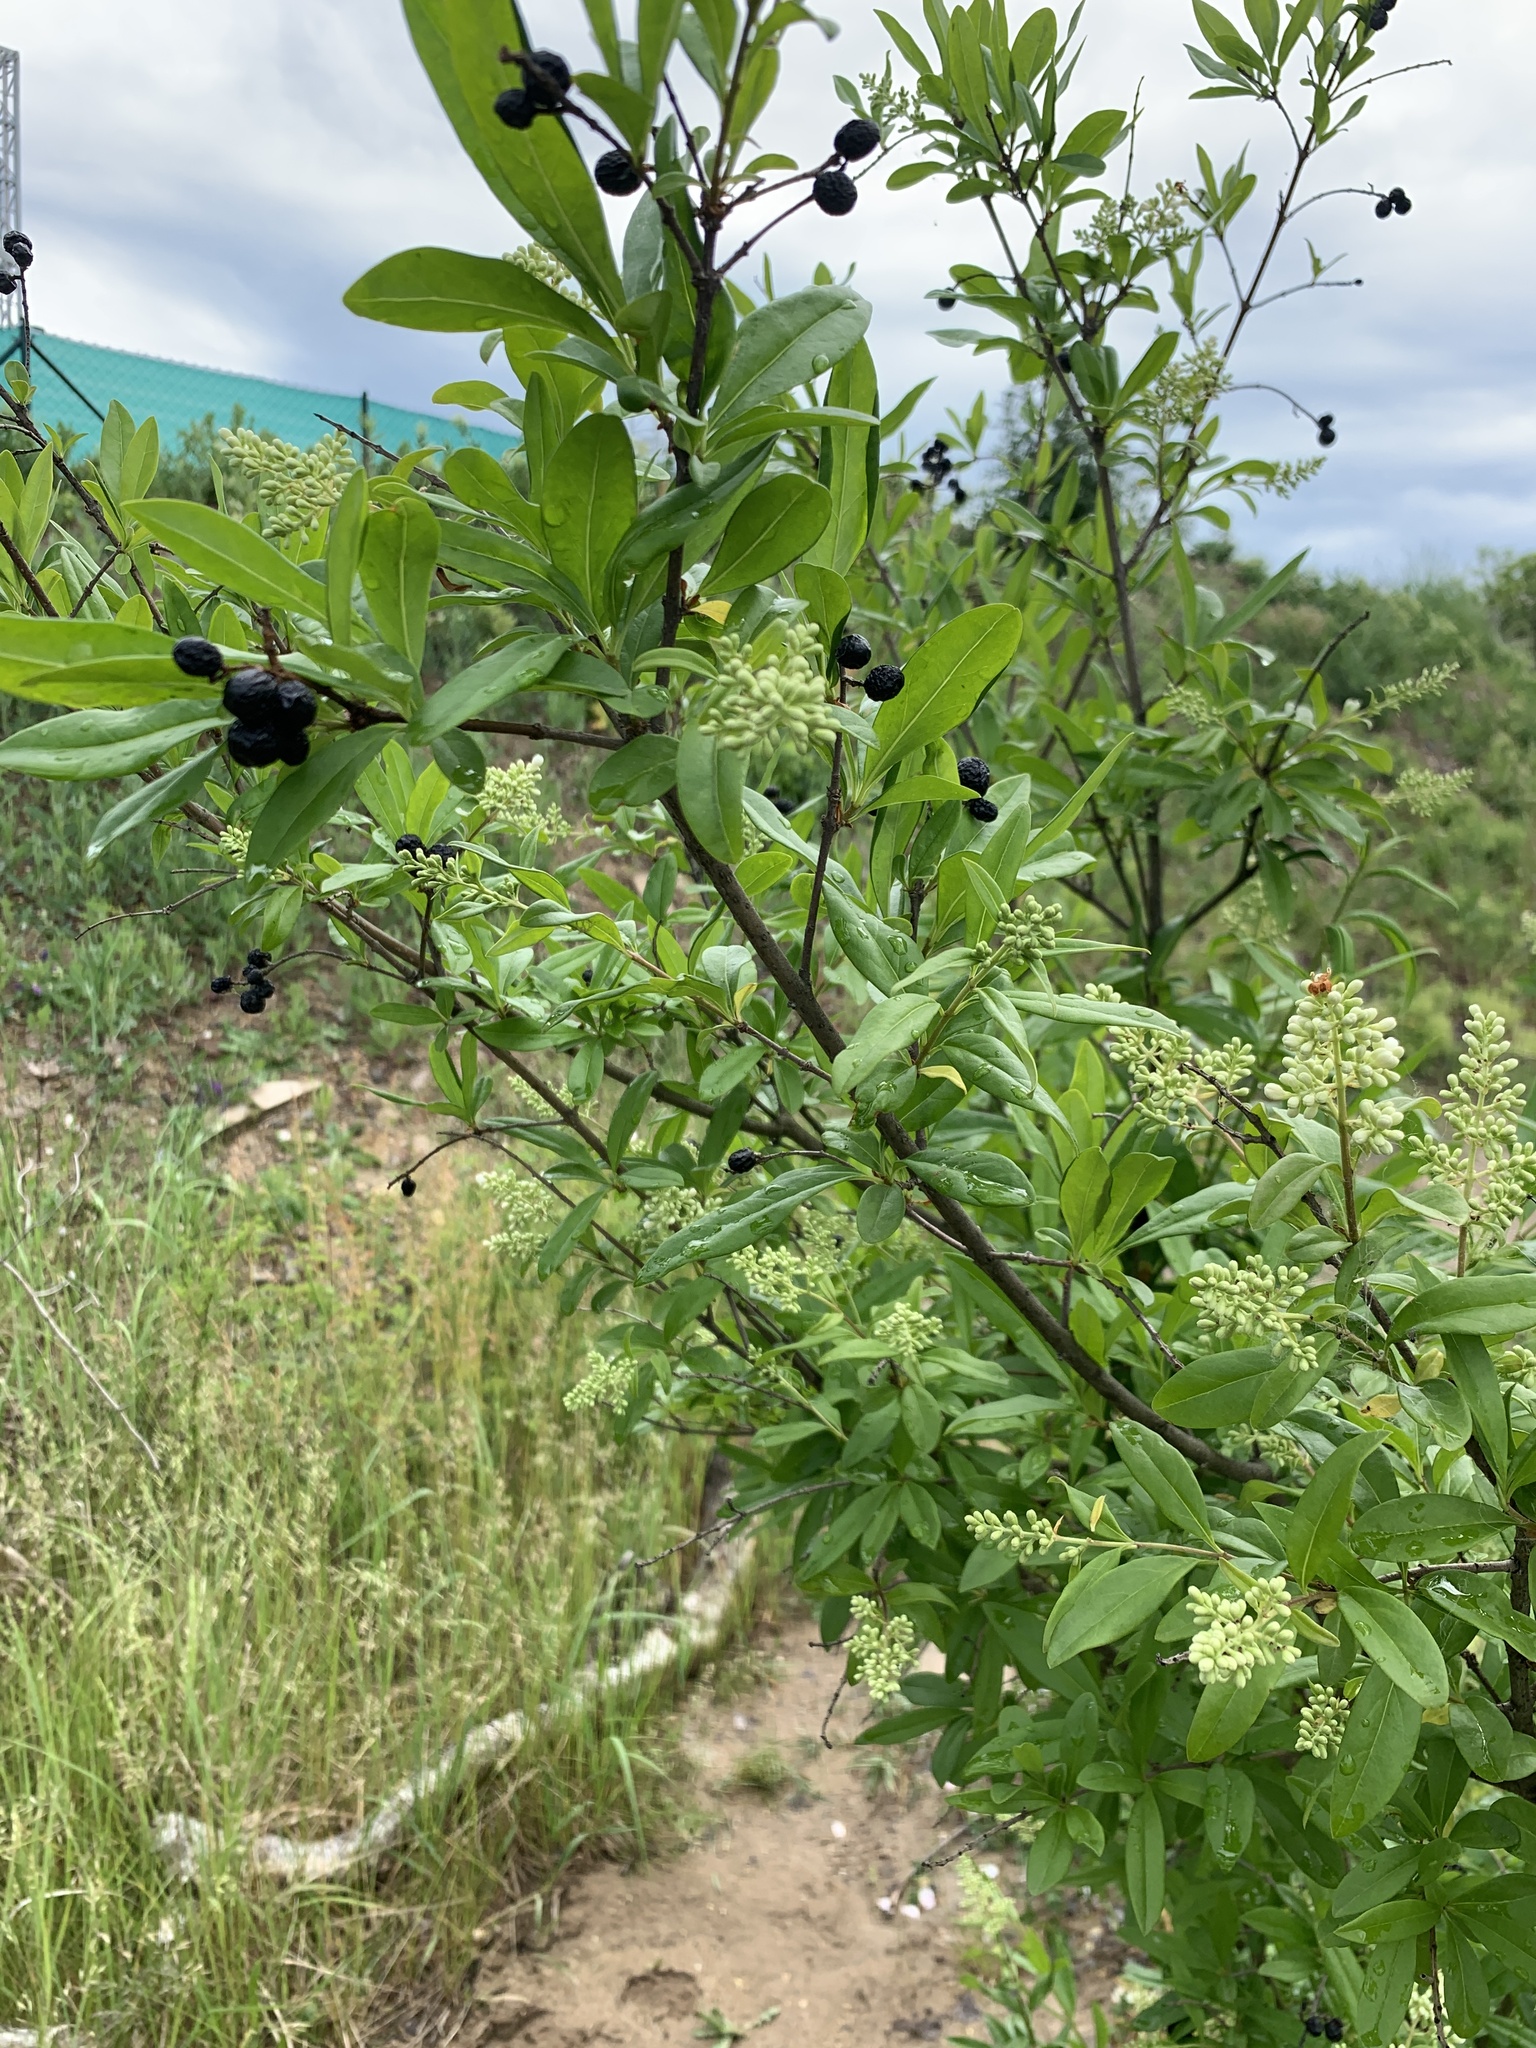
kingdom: Plantae
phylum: Tracheophyta
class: Magnoliopsida
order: Lamiales
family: Oleaceae
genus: Ligustrum
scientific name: Ligustrum vulgare
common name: Wild privet
